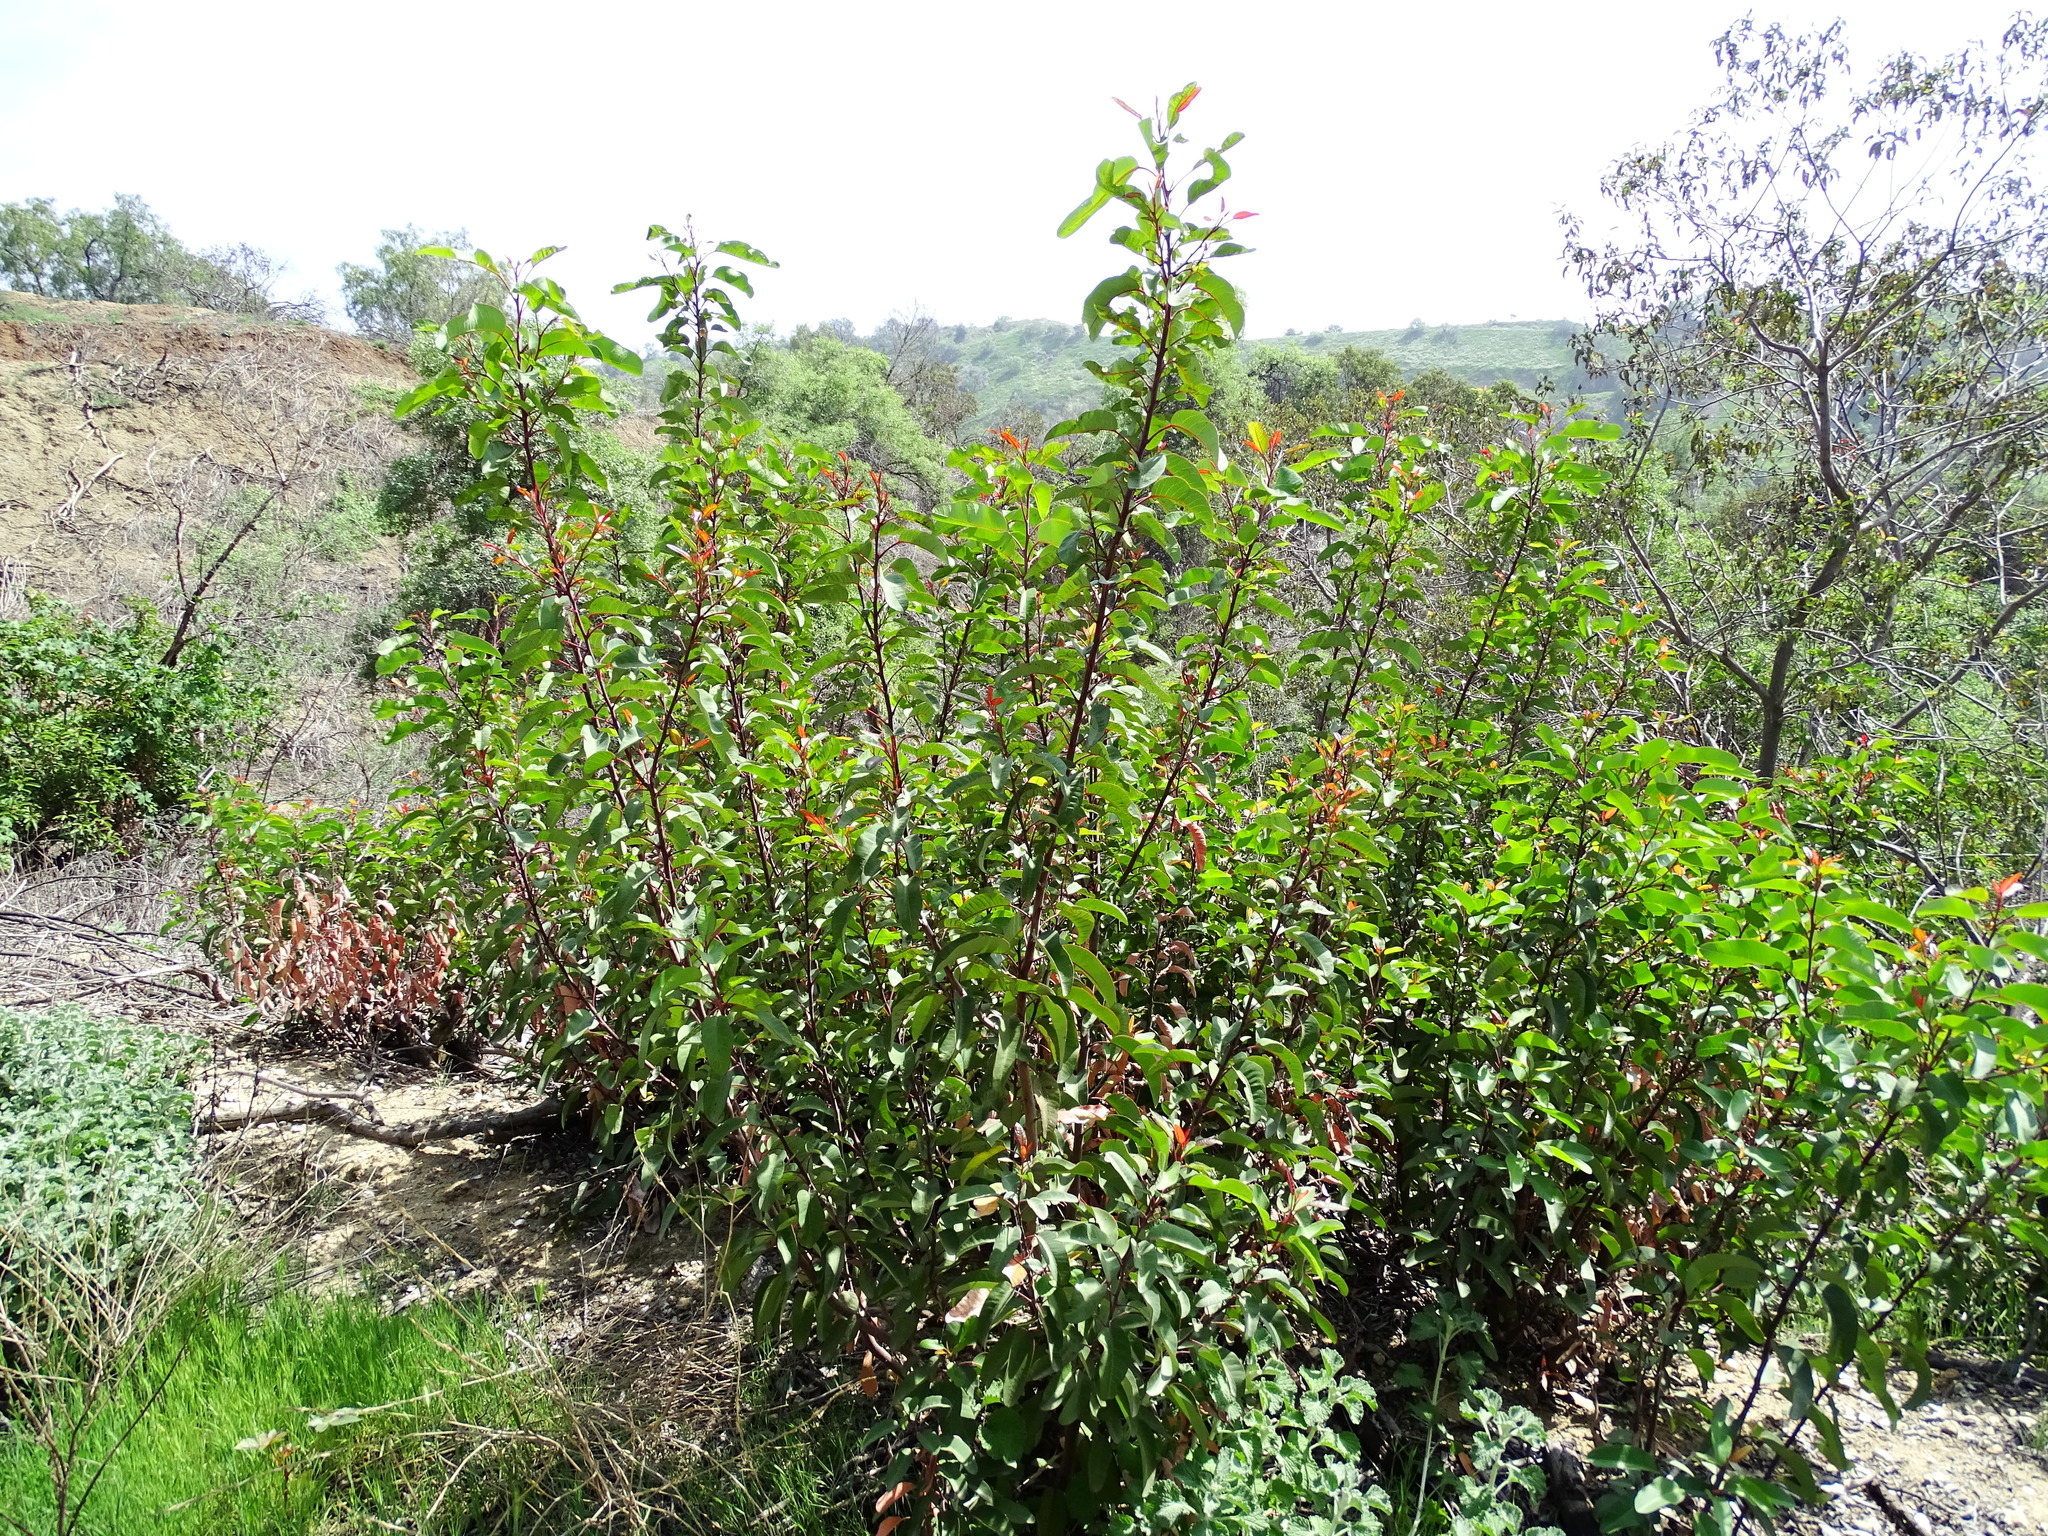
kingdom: Plantae
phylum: Tracheophyta
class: Magnoliopsida
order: Sapindales
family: Anacardiaceae
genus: Malosma
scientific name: Malosma laurina
